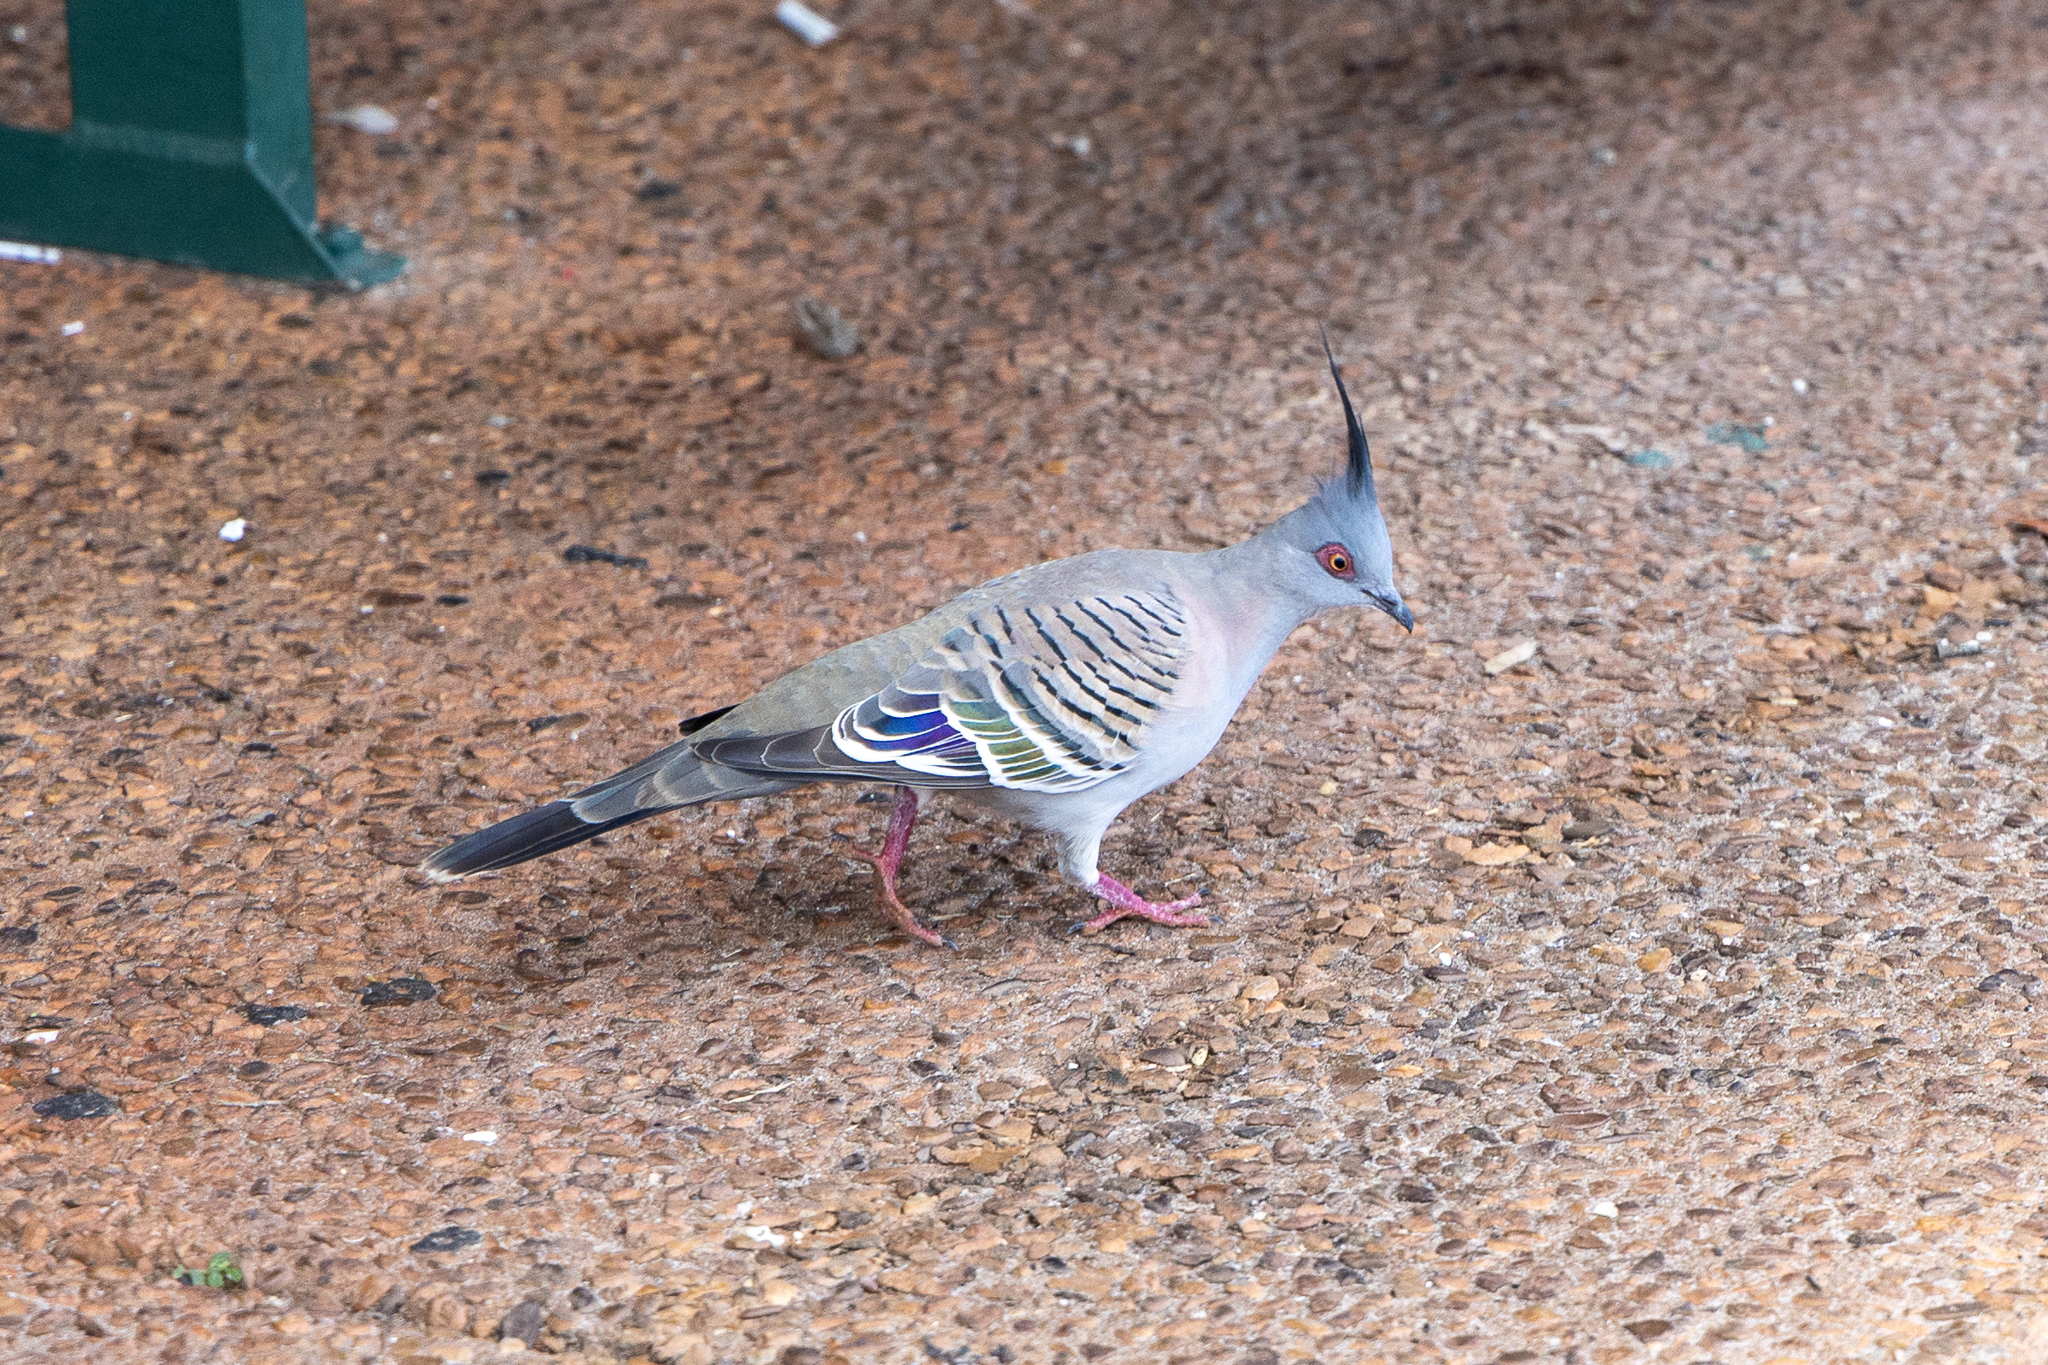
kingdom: Animalia
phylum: Chordata
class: Aves
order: Columbiformes
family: Columbidae
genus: Ocyphaps
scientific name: Ocyphaps lophotes
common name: Crested pigeon
